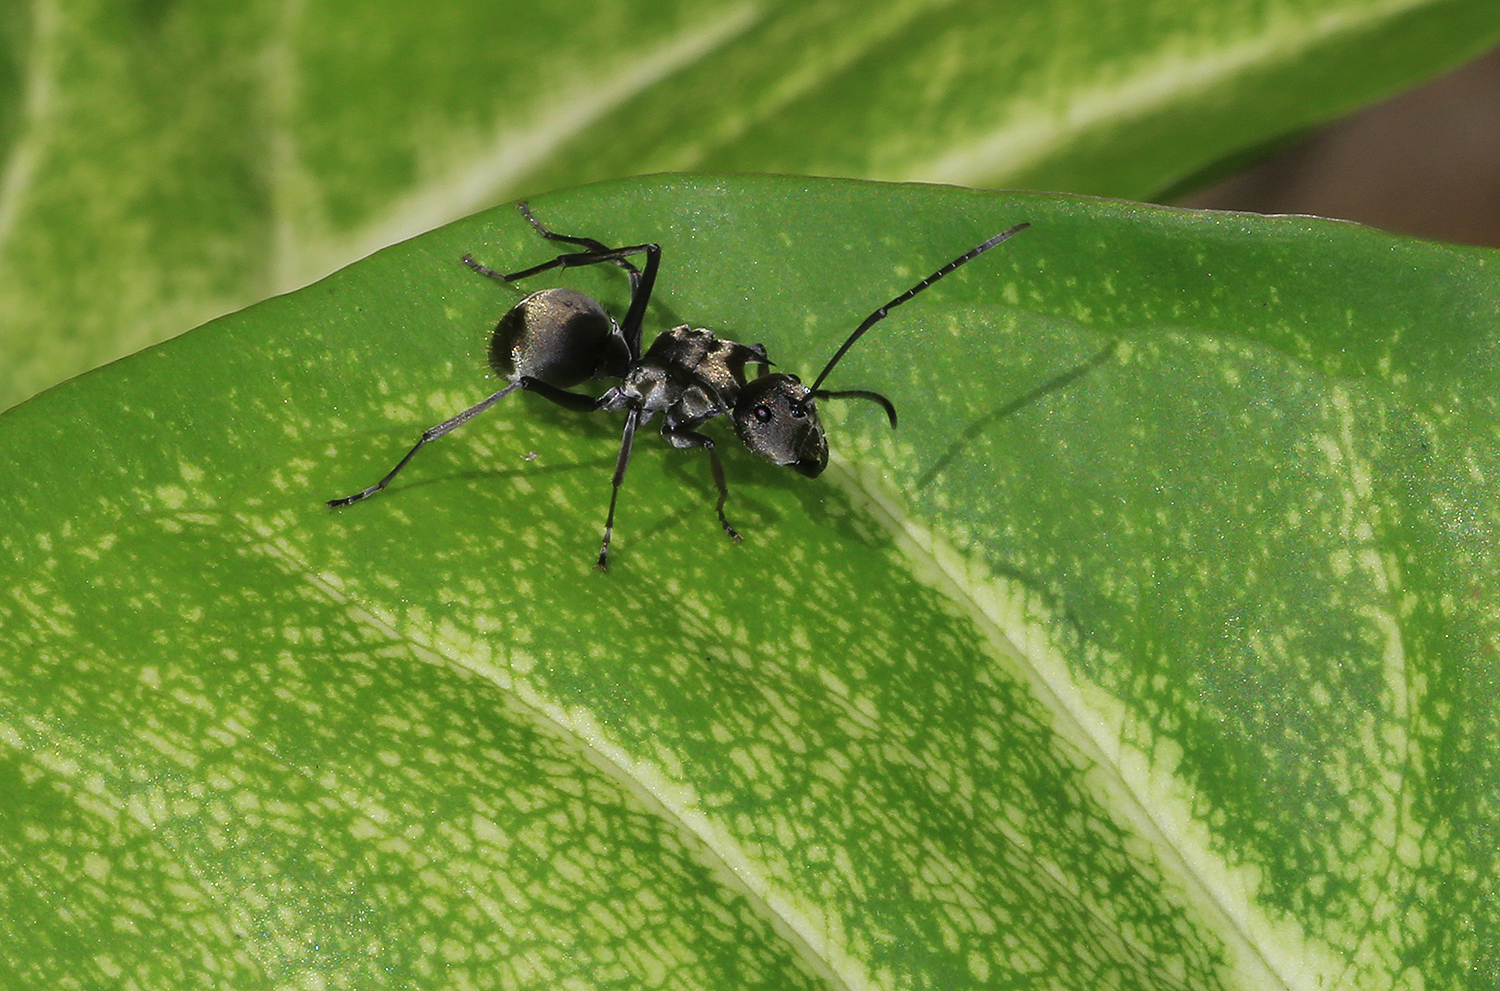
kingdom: Animalia
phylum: Arthropoda
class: Insecta
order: Hymenoptera
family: Formicidae
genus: Polyrhachis
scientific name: Polyrhachis foreli
